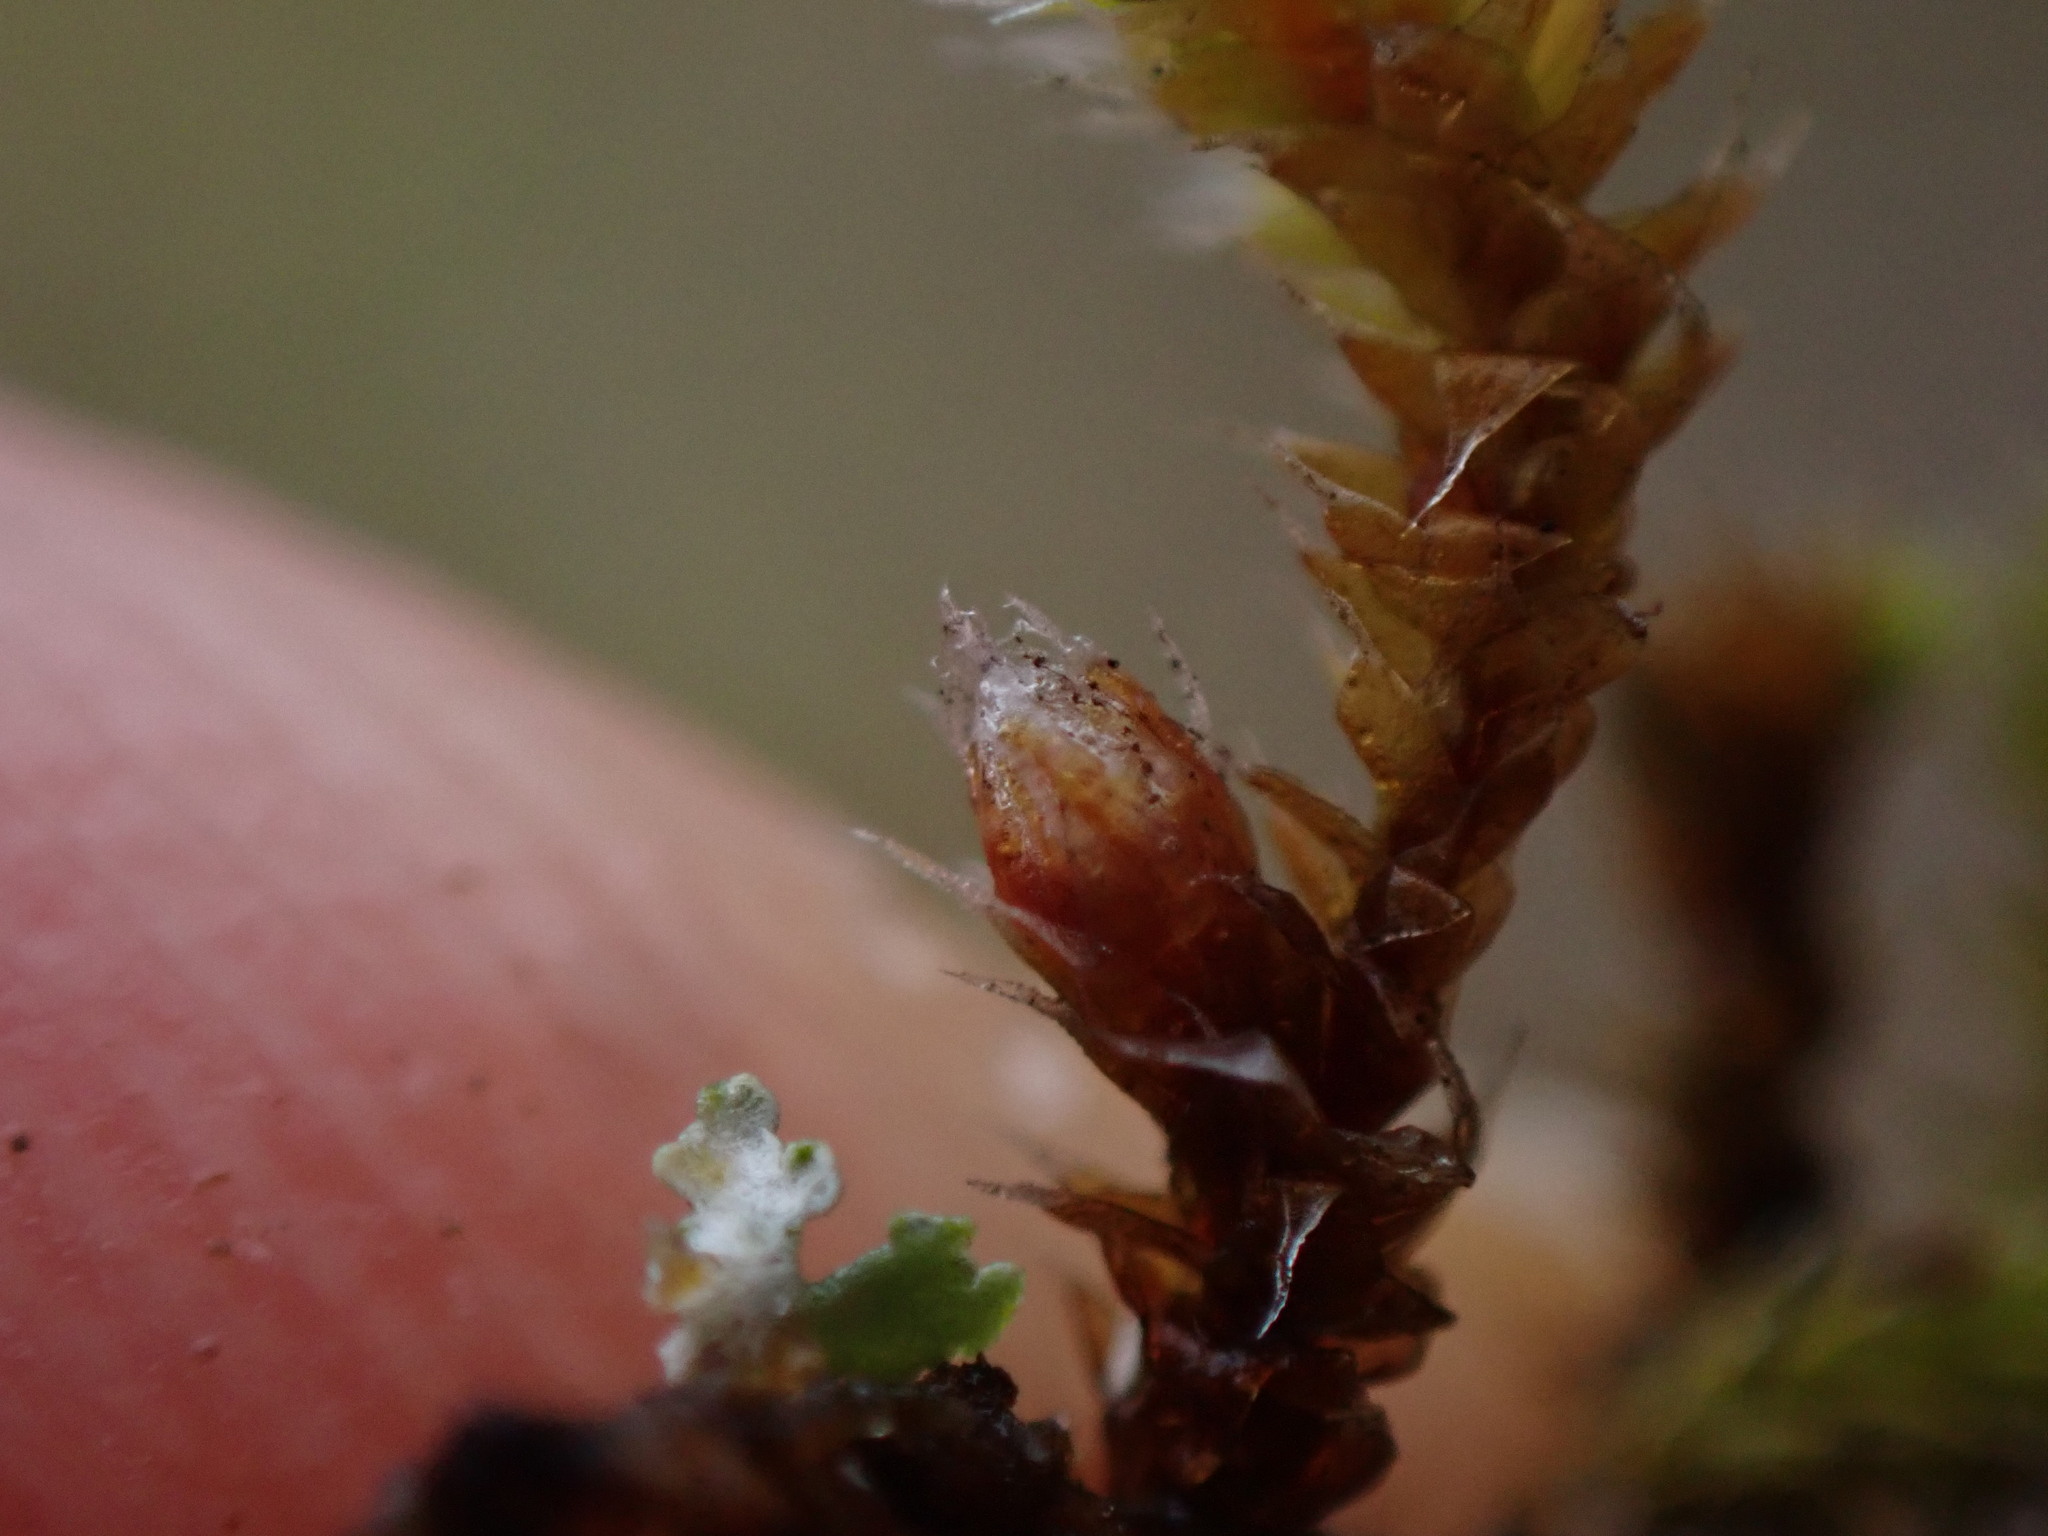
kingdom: Plantae
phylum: Bryophyta
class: Bryopsida
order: Hedwigiales
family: Hedwigiaceae
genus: Hedwigia
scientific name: Hedwigia stellata
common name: Starry hoar-moss
